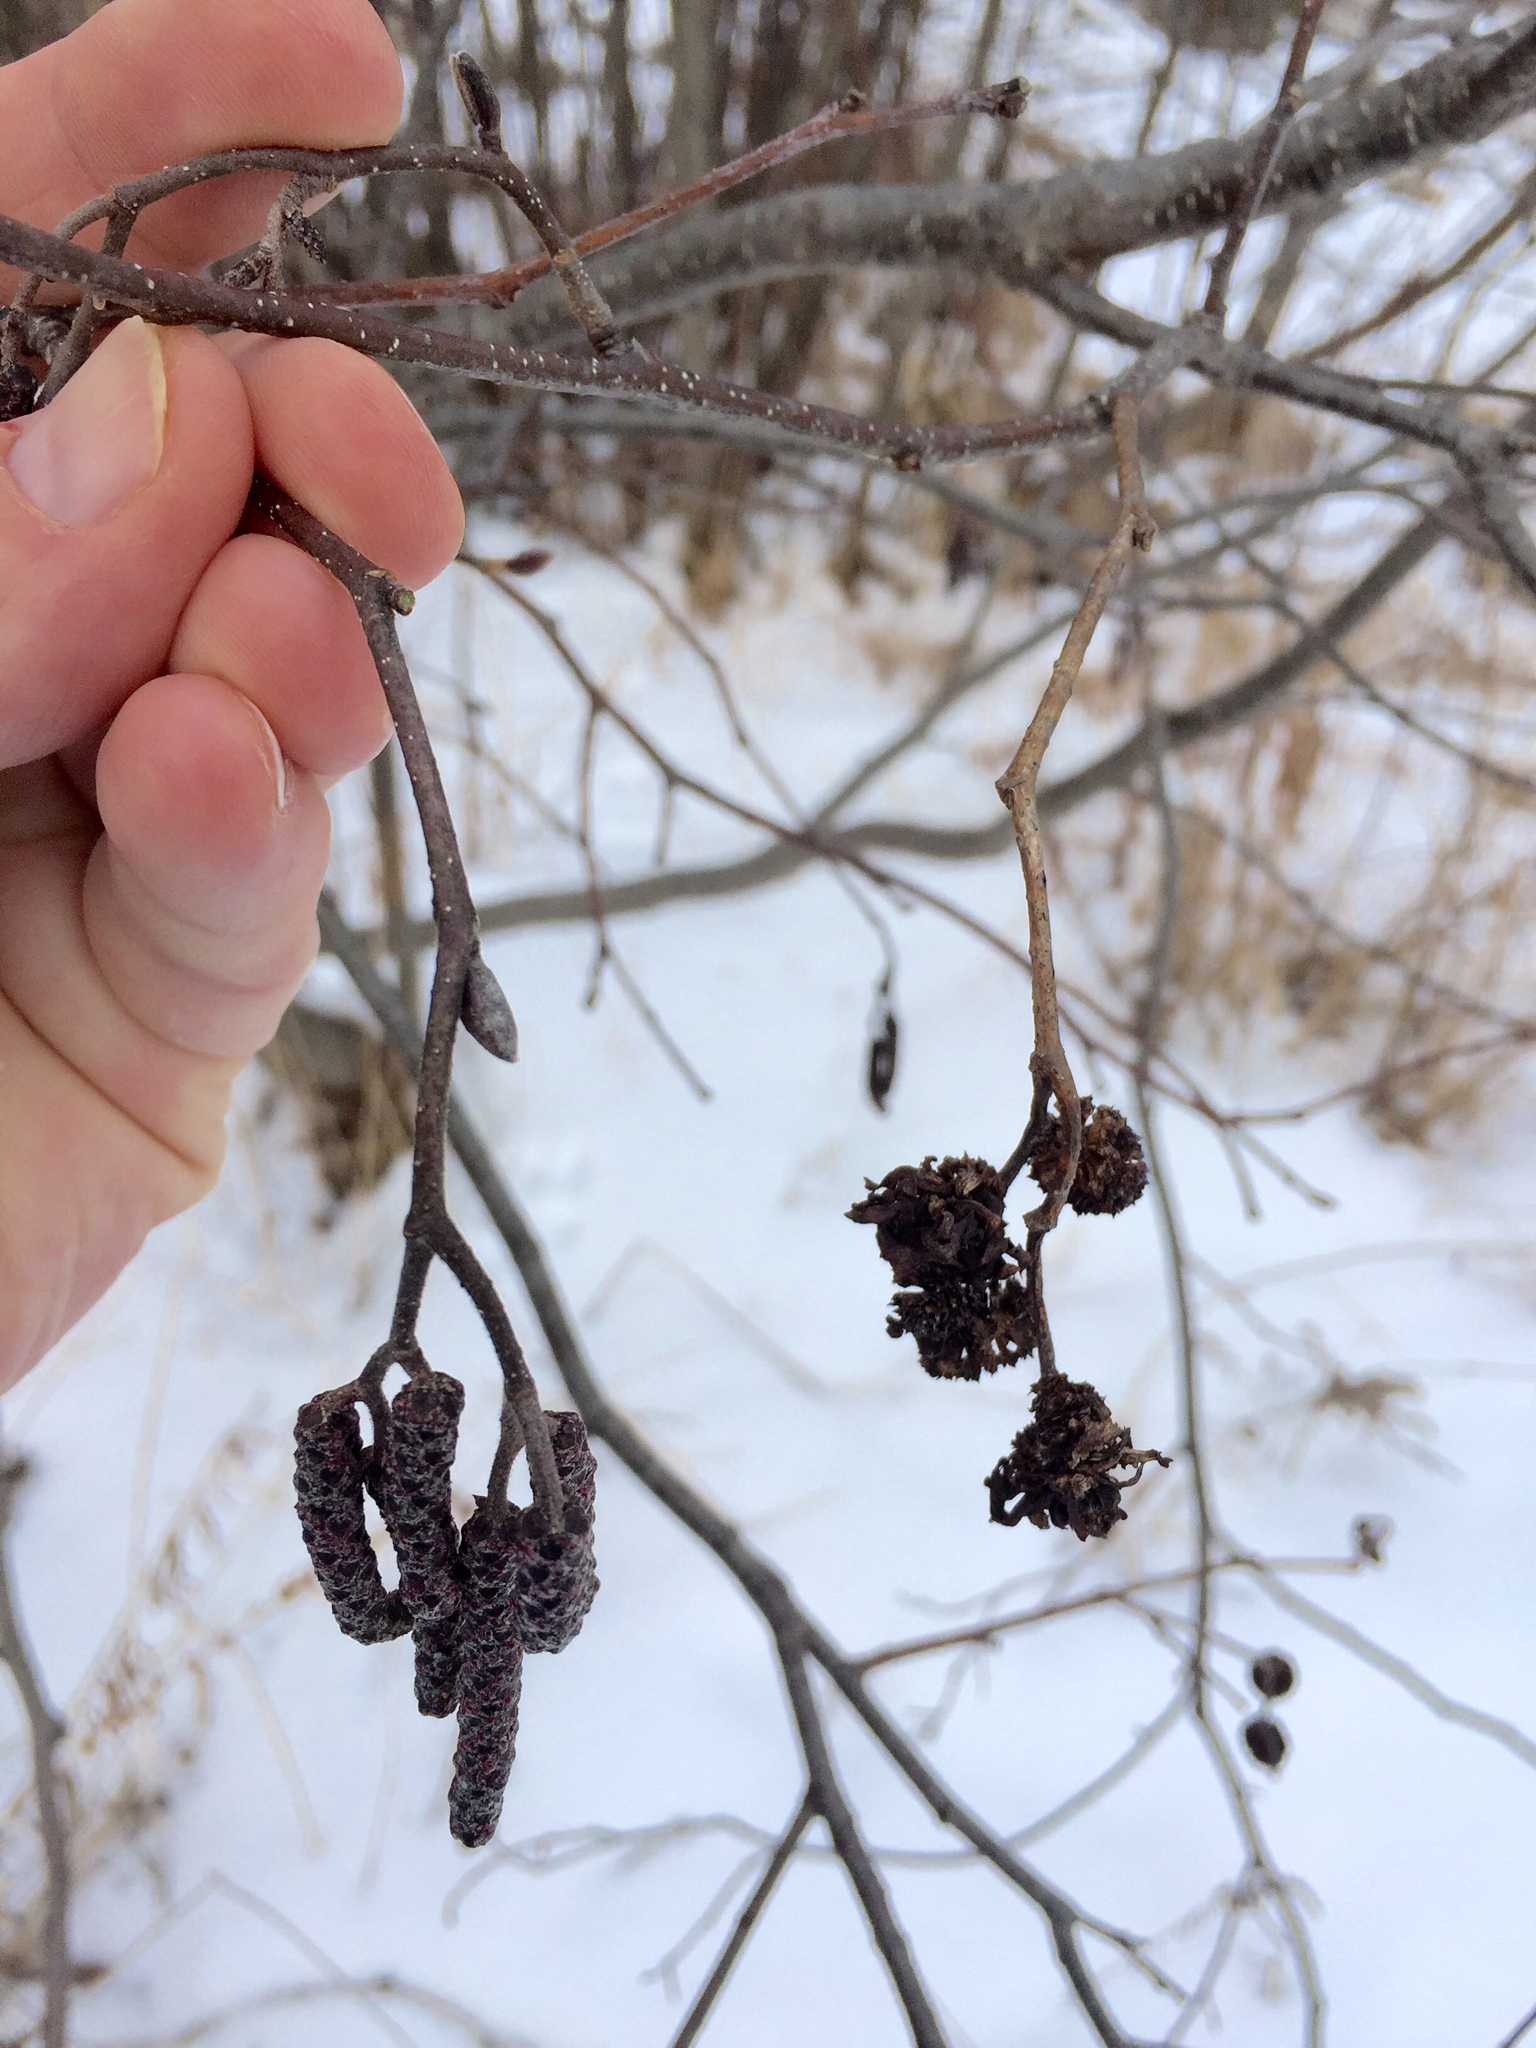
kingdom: Plantae
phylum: Tracheophyta
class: Magnoliopsida
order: Fagales
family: Betulaceae
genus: Alnus
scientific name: Alnus incana
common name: Grey alder
